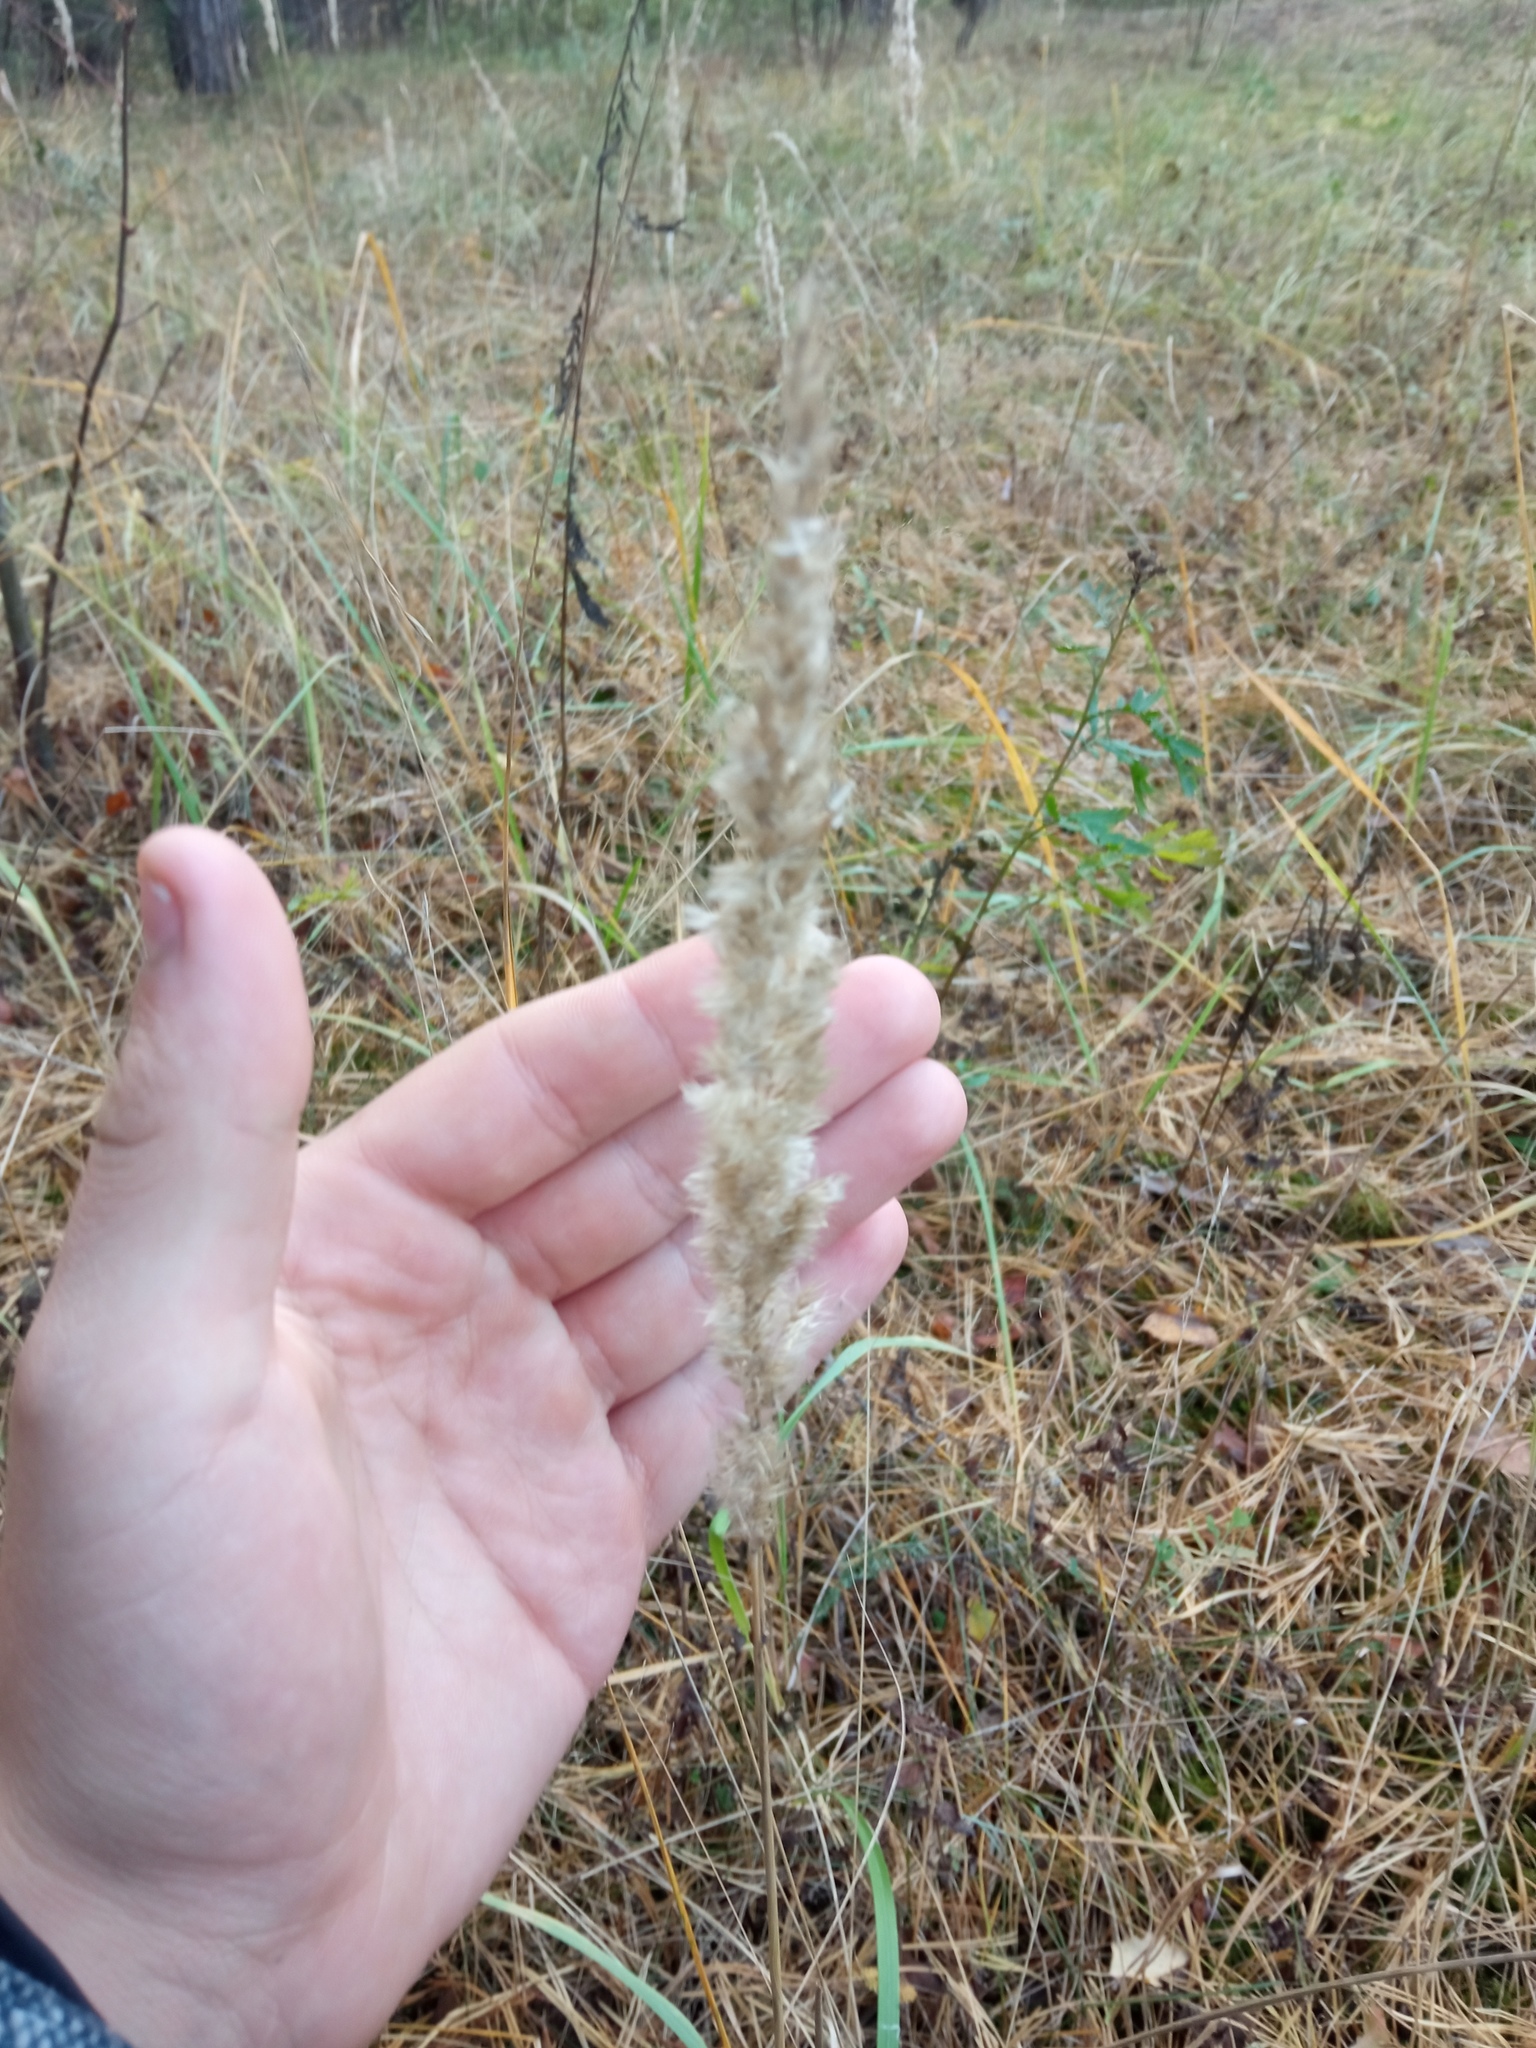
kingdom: Plantae
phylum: Tracheophyta
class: Liliopsida
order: Poales
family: Poaceae
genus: Calamagrostis
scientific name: Calamagrostis epigejos
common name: Wood small-reed
